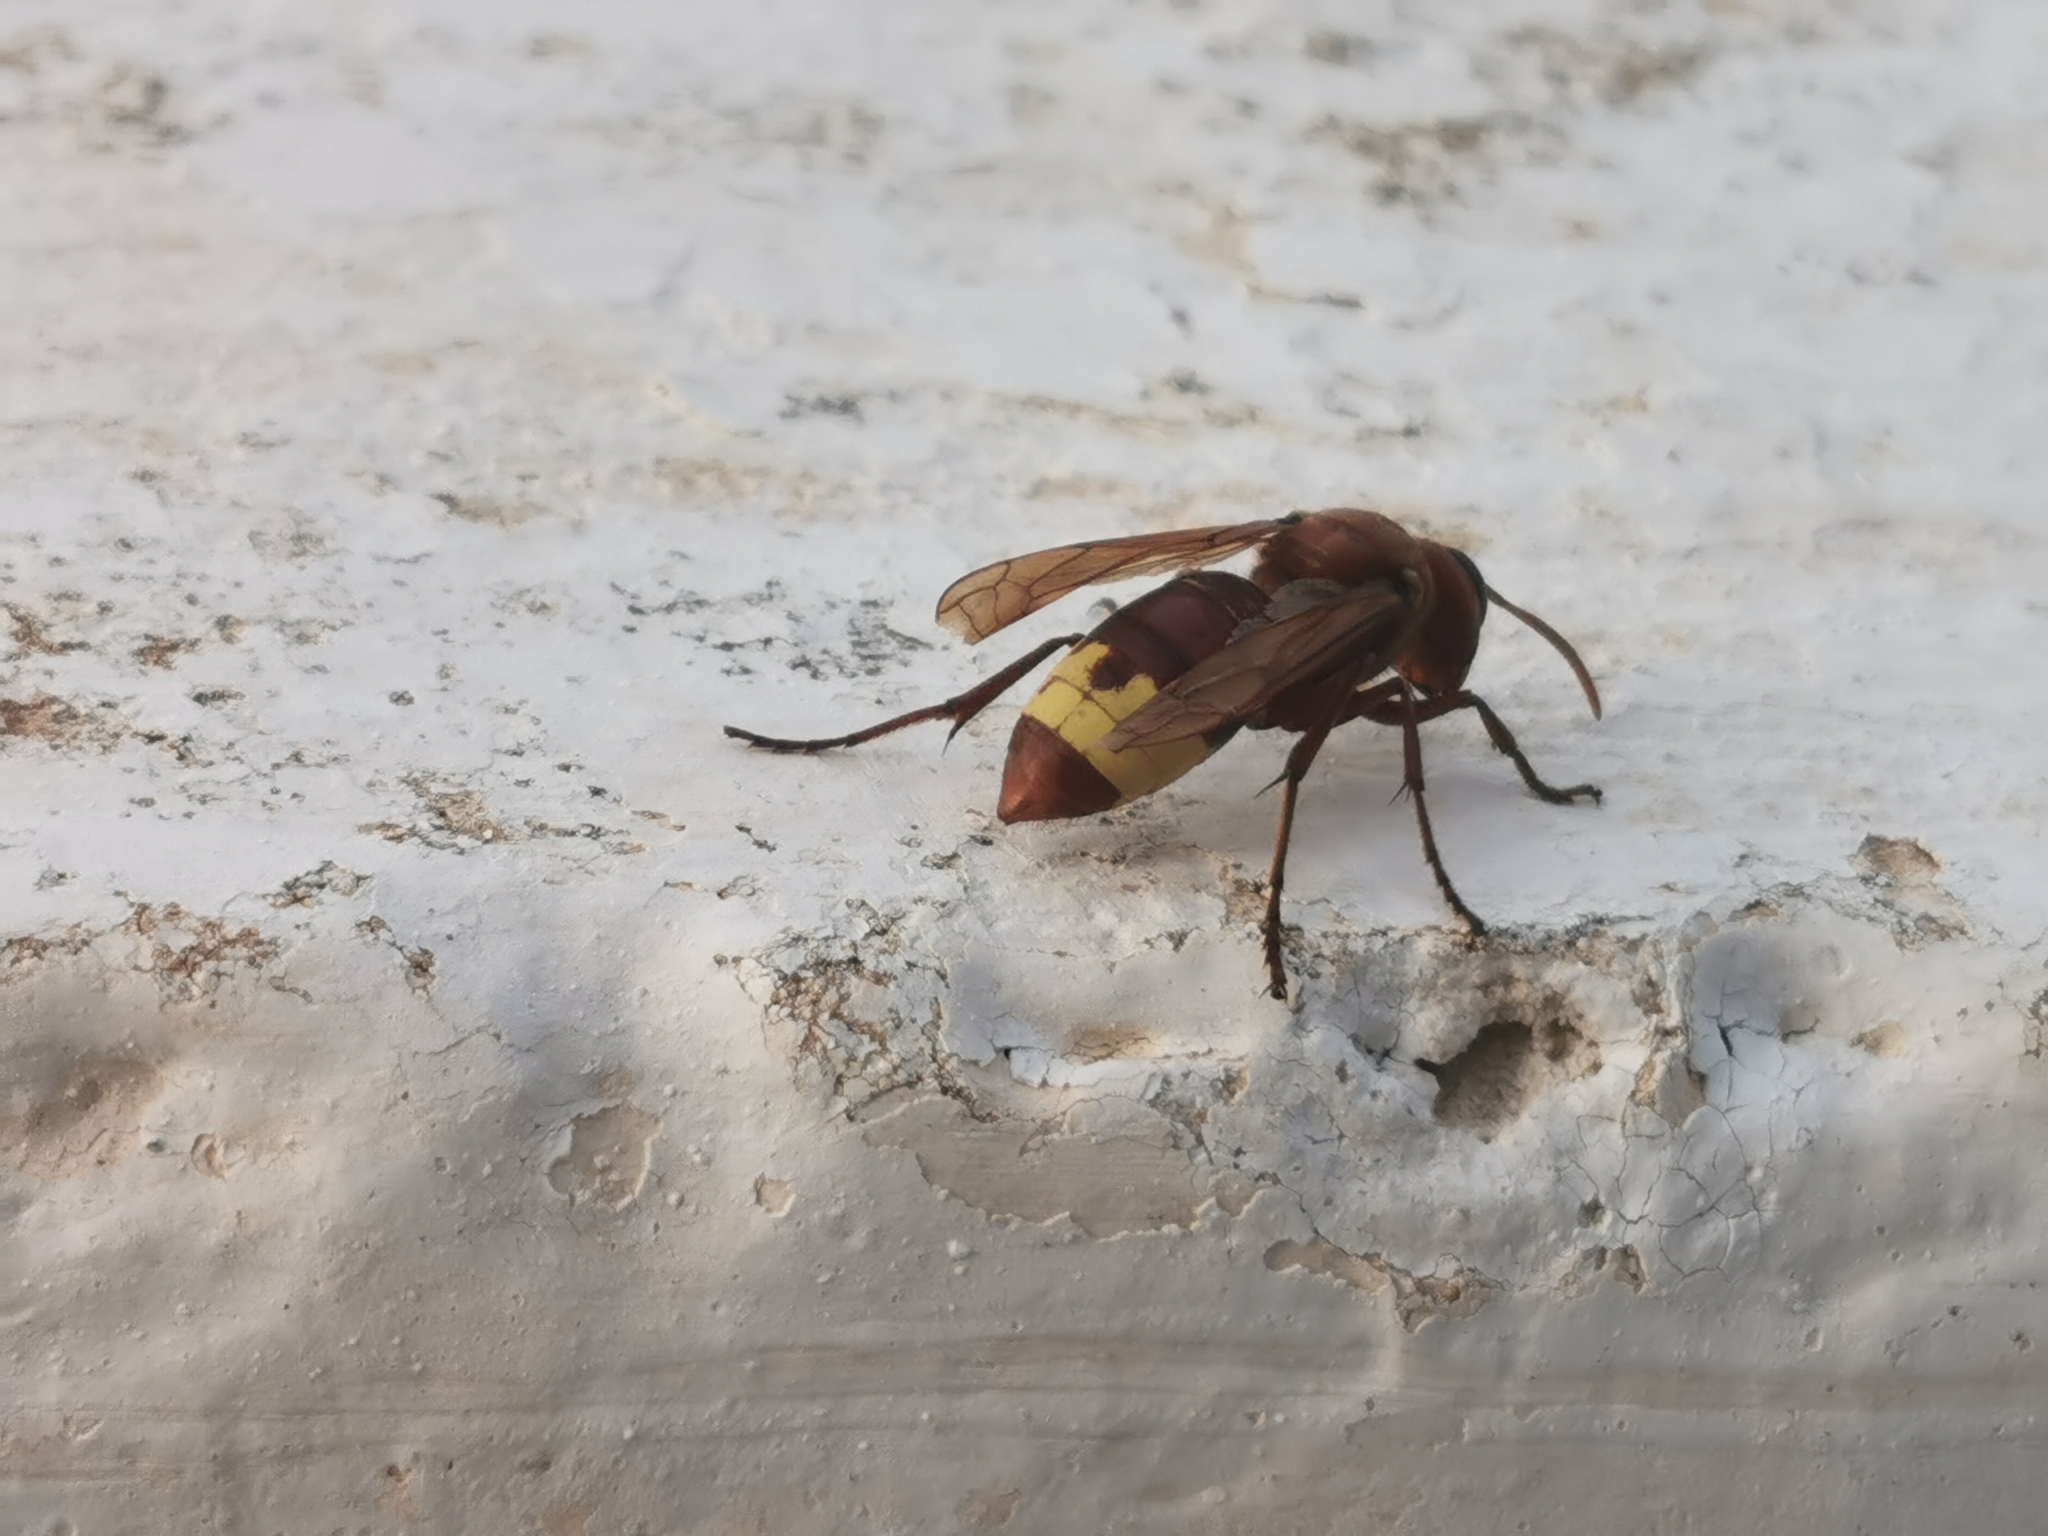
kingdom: Animalia
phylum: Arthropoda
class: Insecta
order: Hymenoptera
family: Vespidae
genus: Vespa
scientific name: Vespa orientalis
